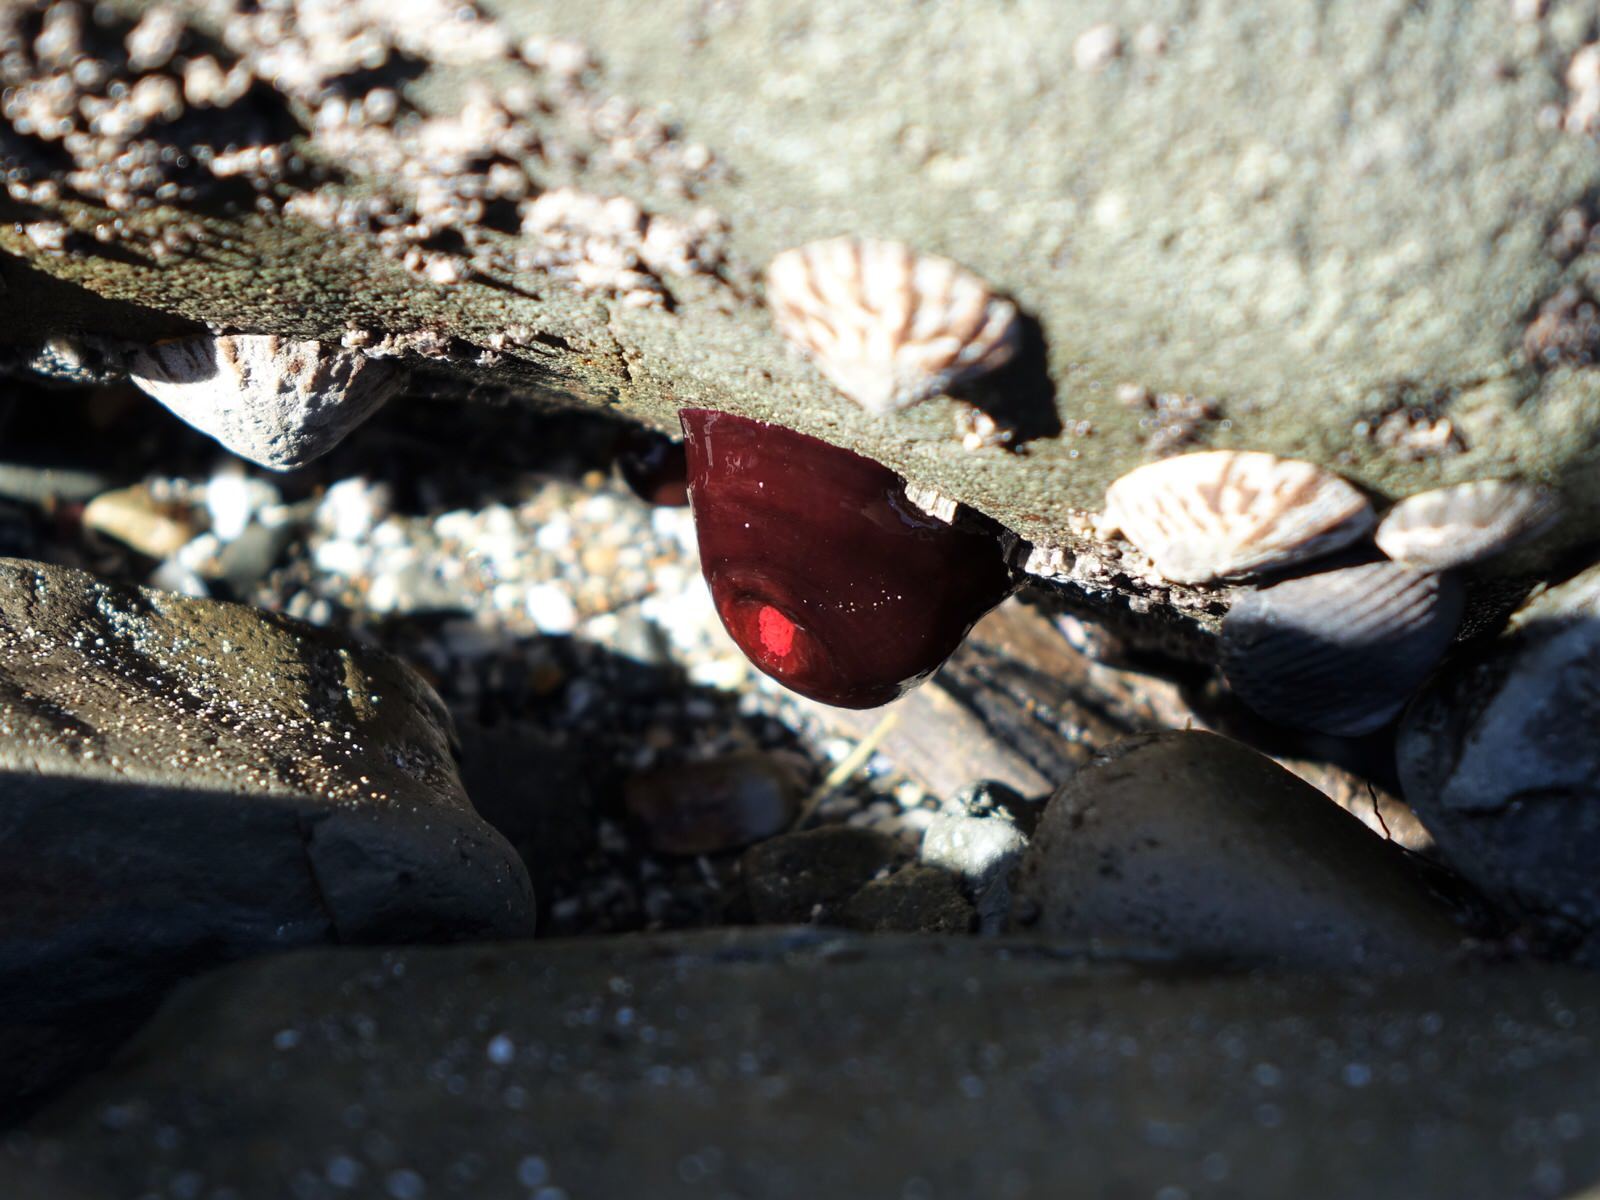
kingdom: Animalia
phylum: Cnidaria
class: Anthozoa
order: Actiniaria
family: Actiniidae
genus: Actinia
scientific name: Actinia tenebrosa
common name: Waratah anemone
